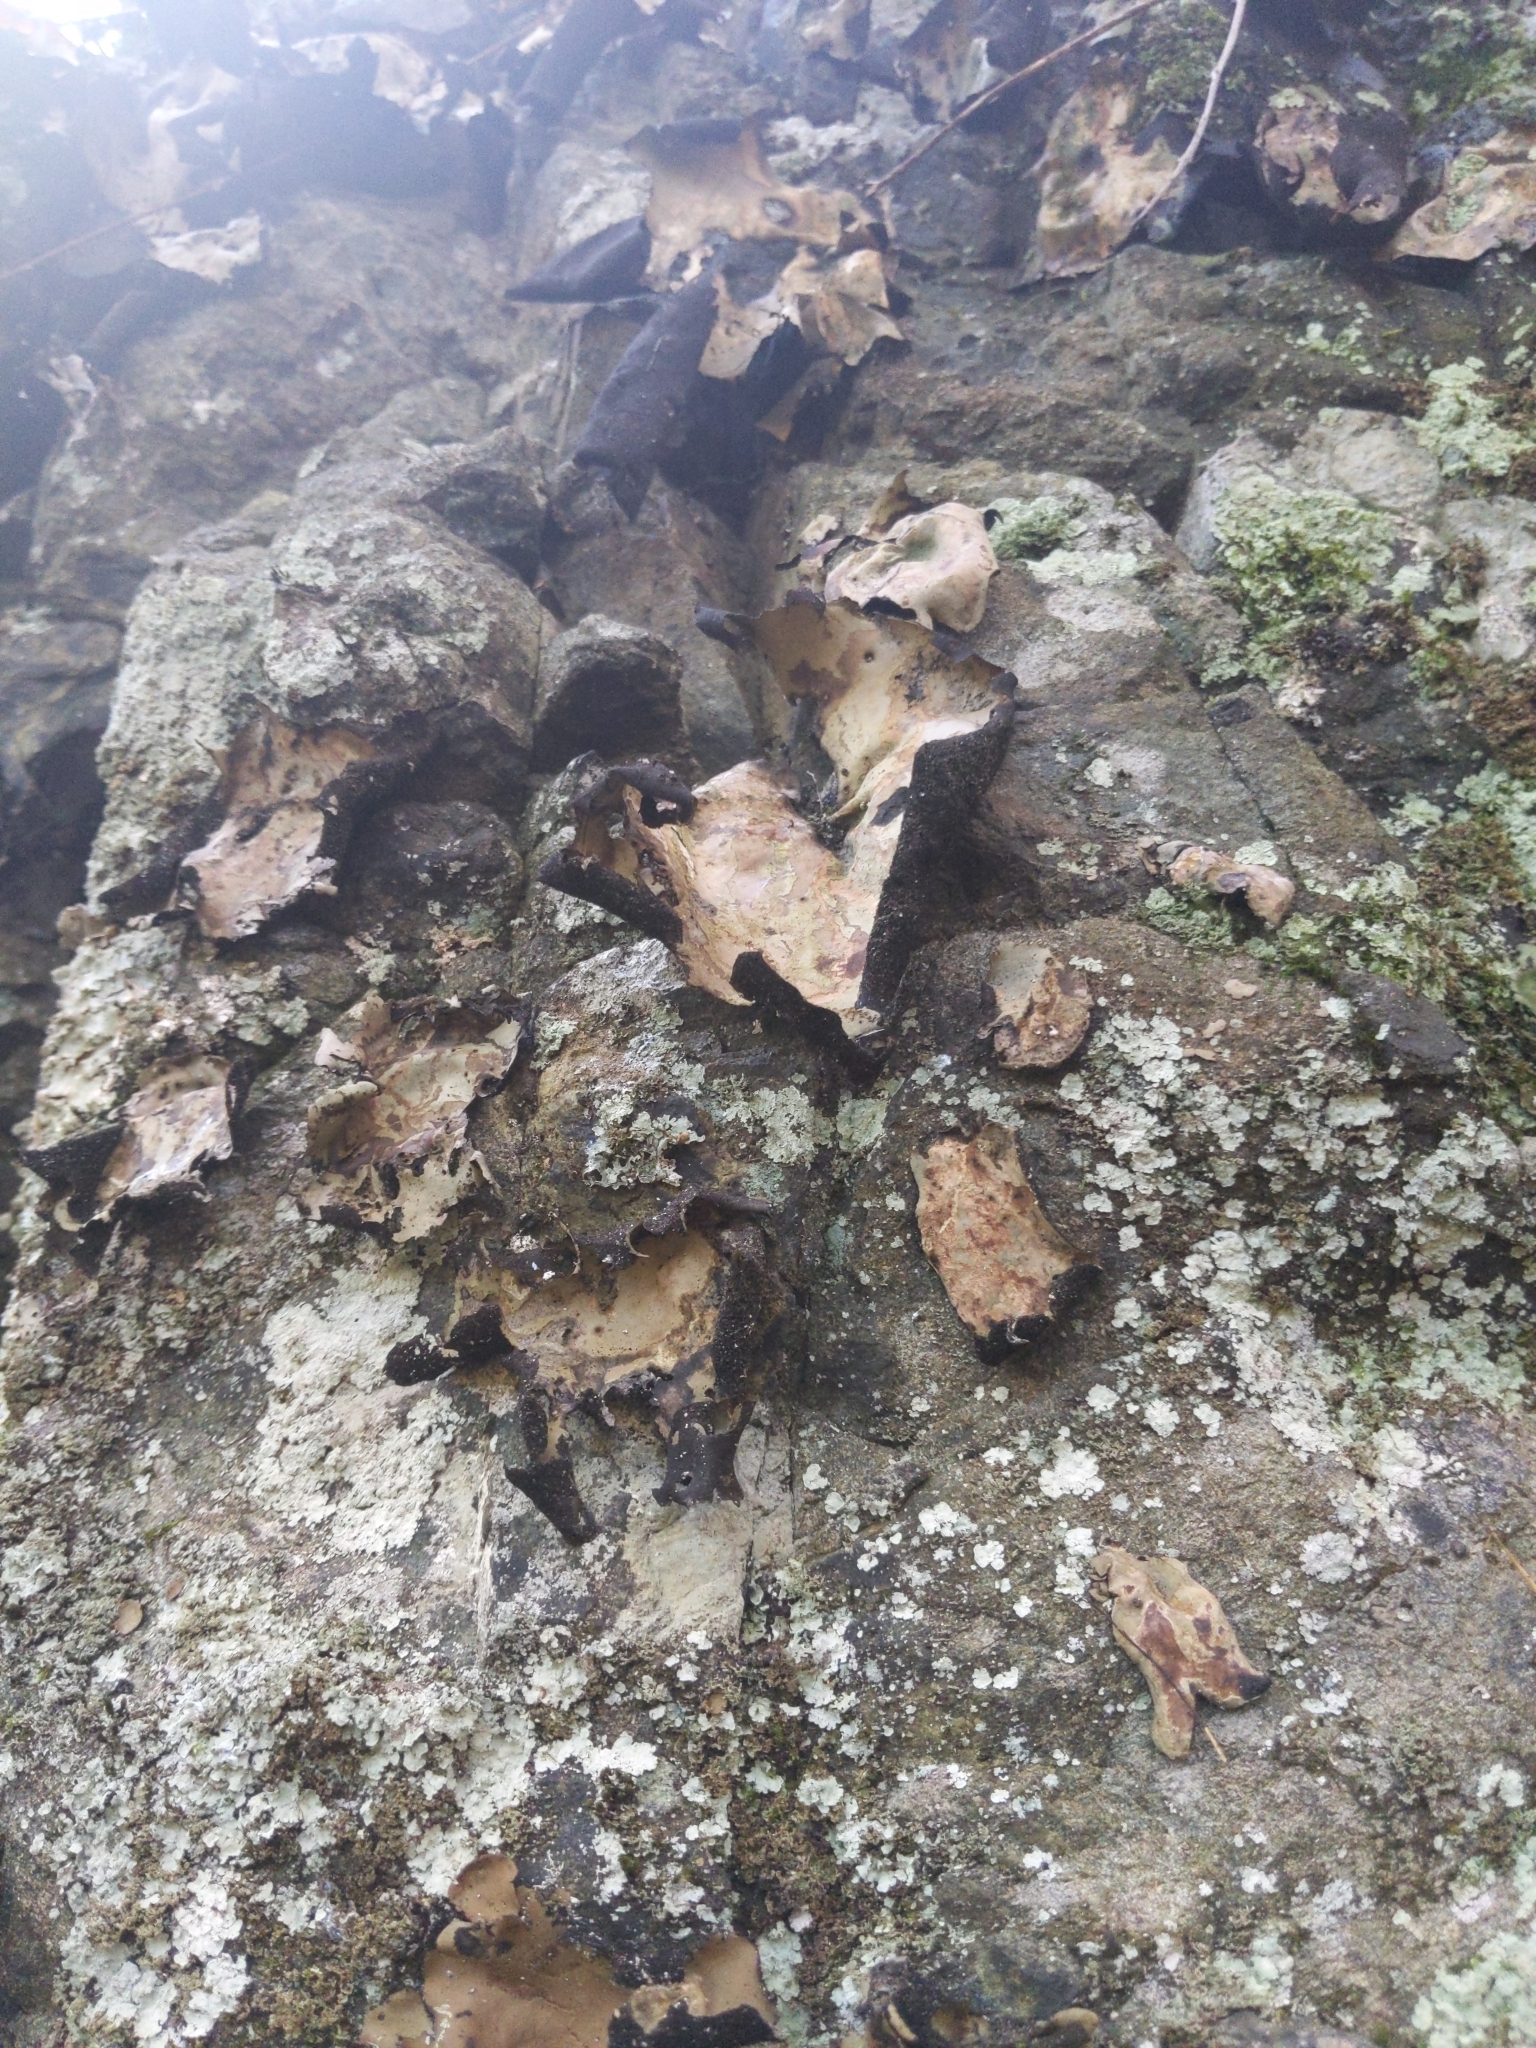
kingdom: Fungi
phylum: Ascomycota
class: Lecanoromycetes
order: Umbilicariales
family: Umbilicariaceae
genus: Umbilicaria
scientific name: Umbilicaria mammulata
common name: Smooth rock tripe
